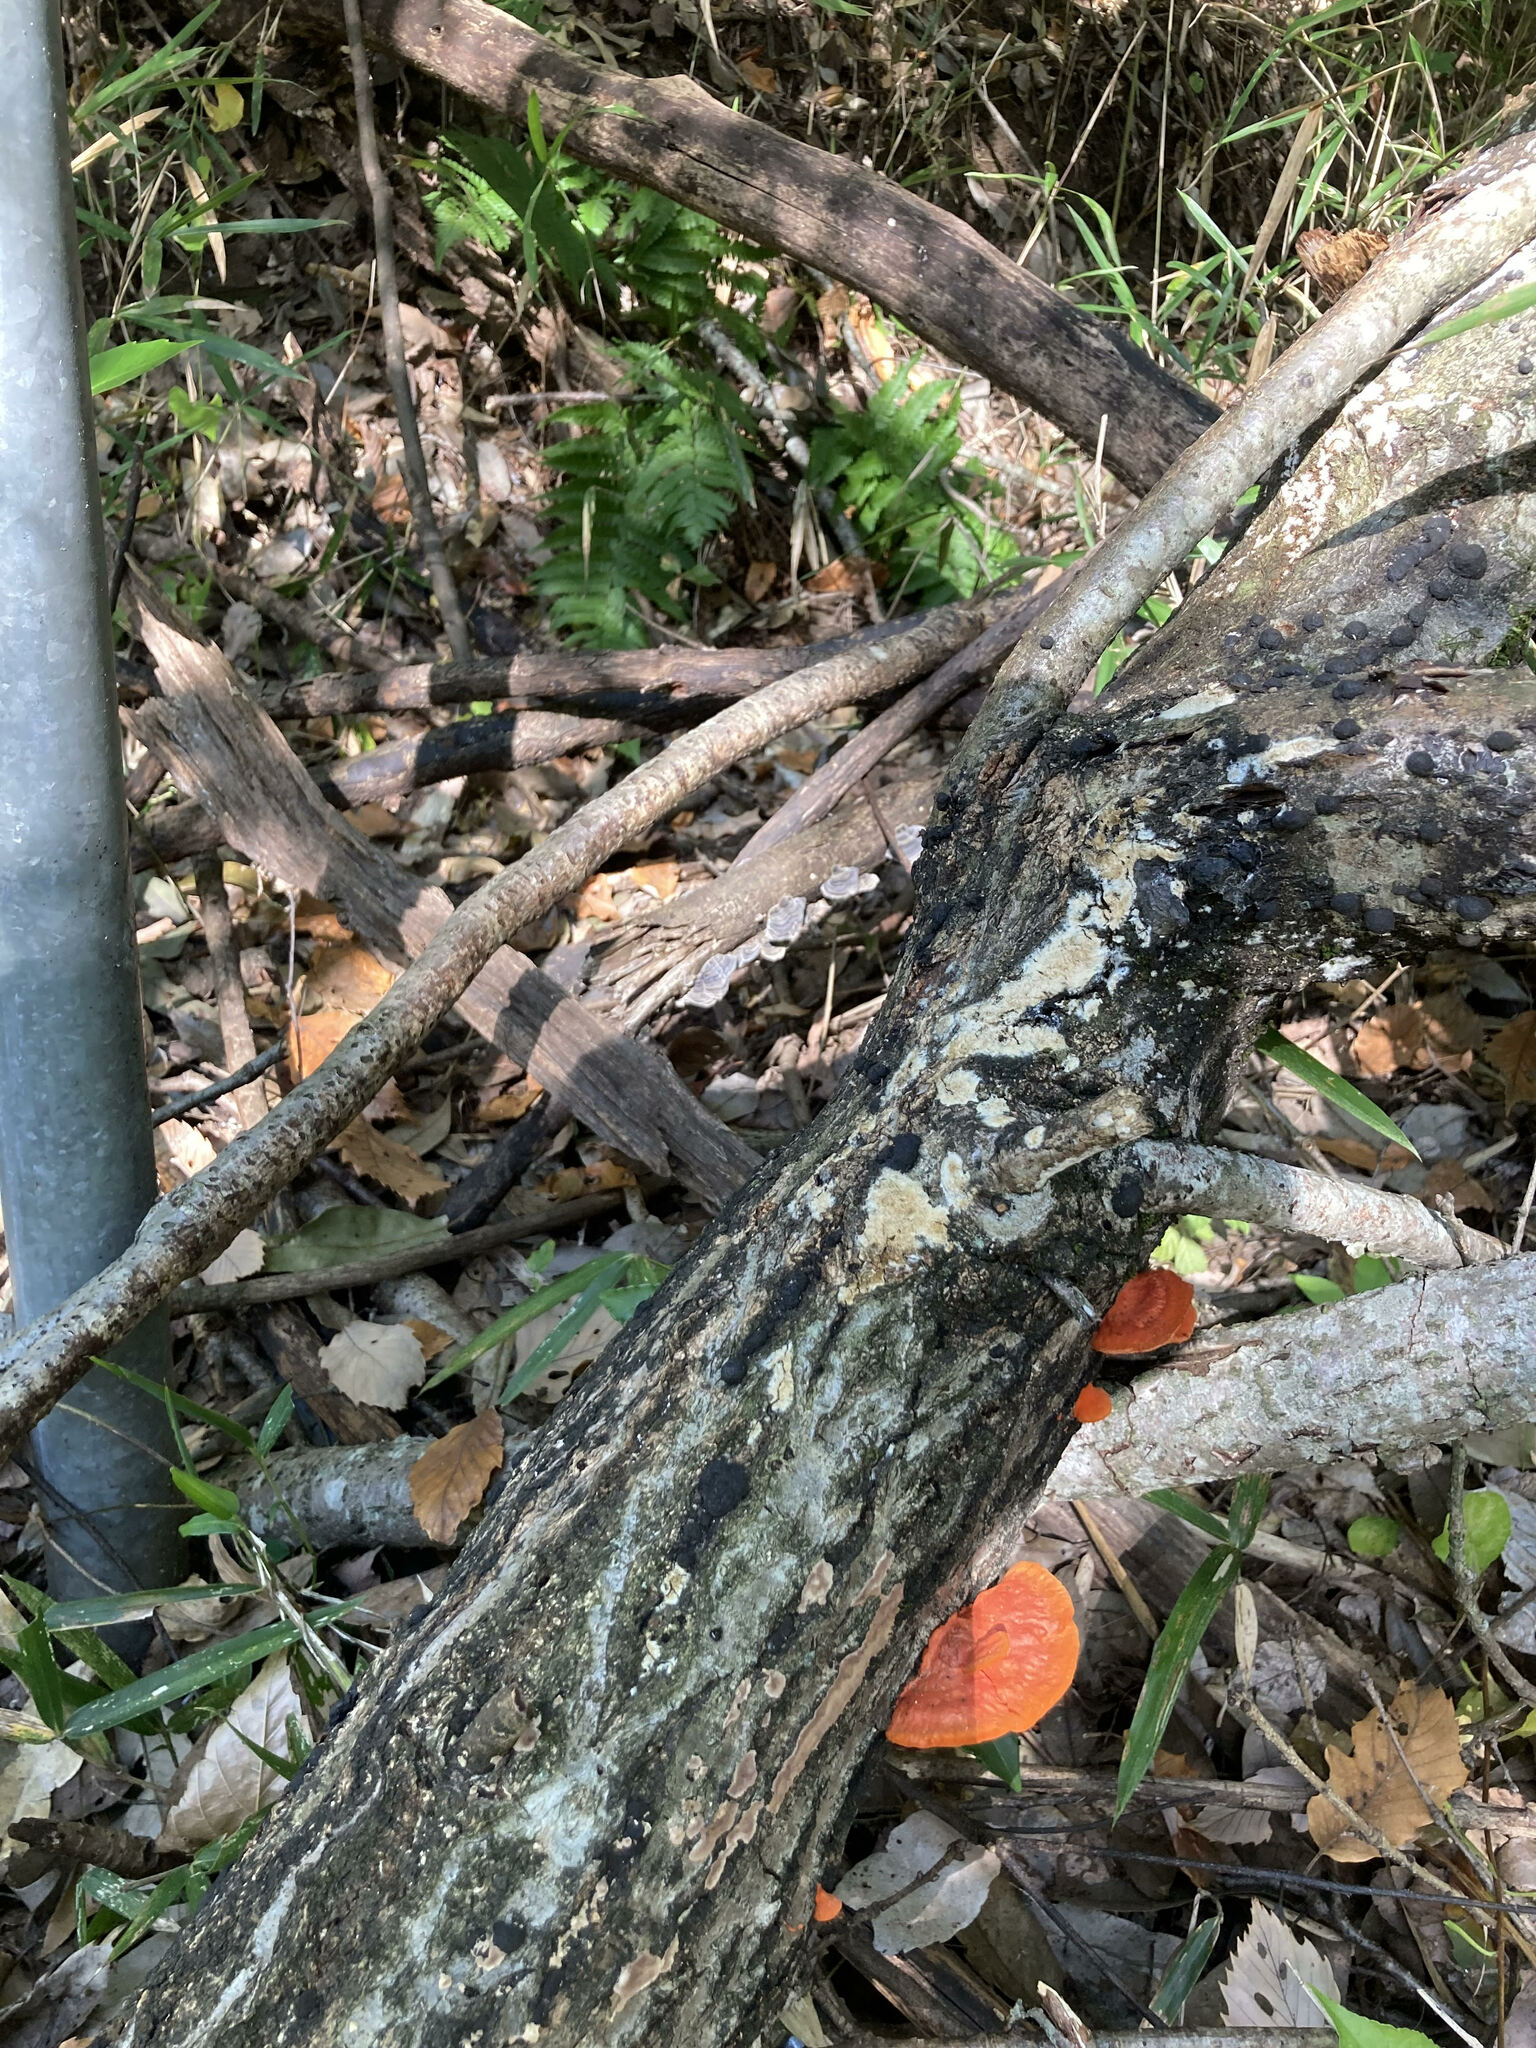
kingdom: Fungi
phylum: Basidiomycota
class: Agaricomycetes
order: Polyporales
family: Polyporaceae
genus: Trametes
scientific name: Trametes coccinea
